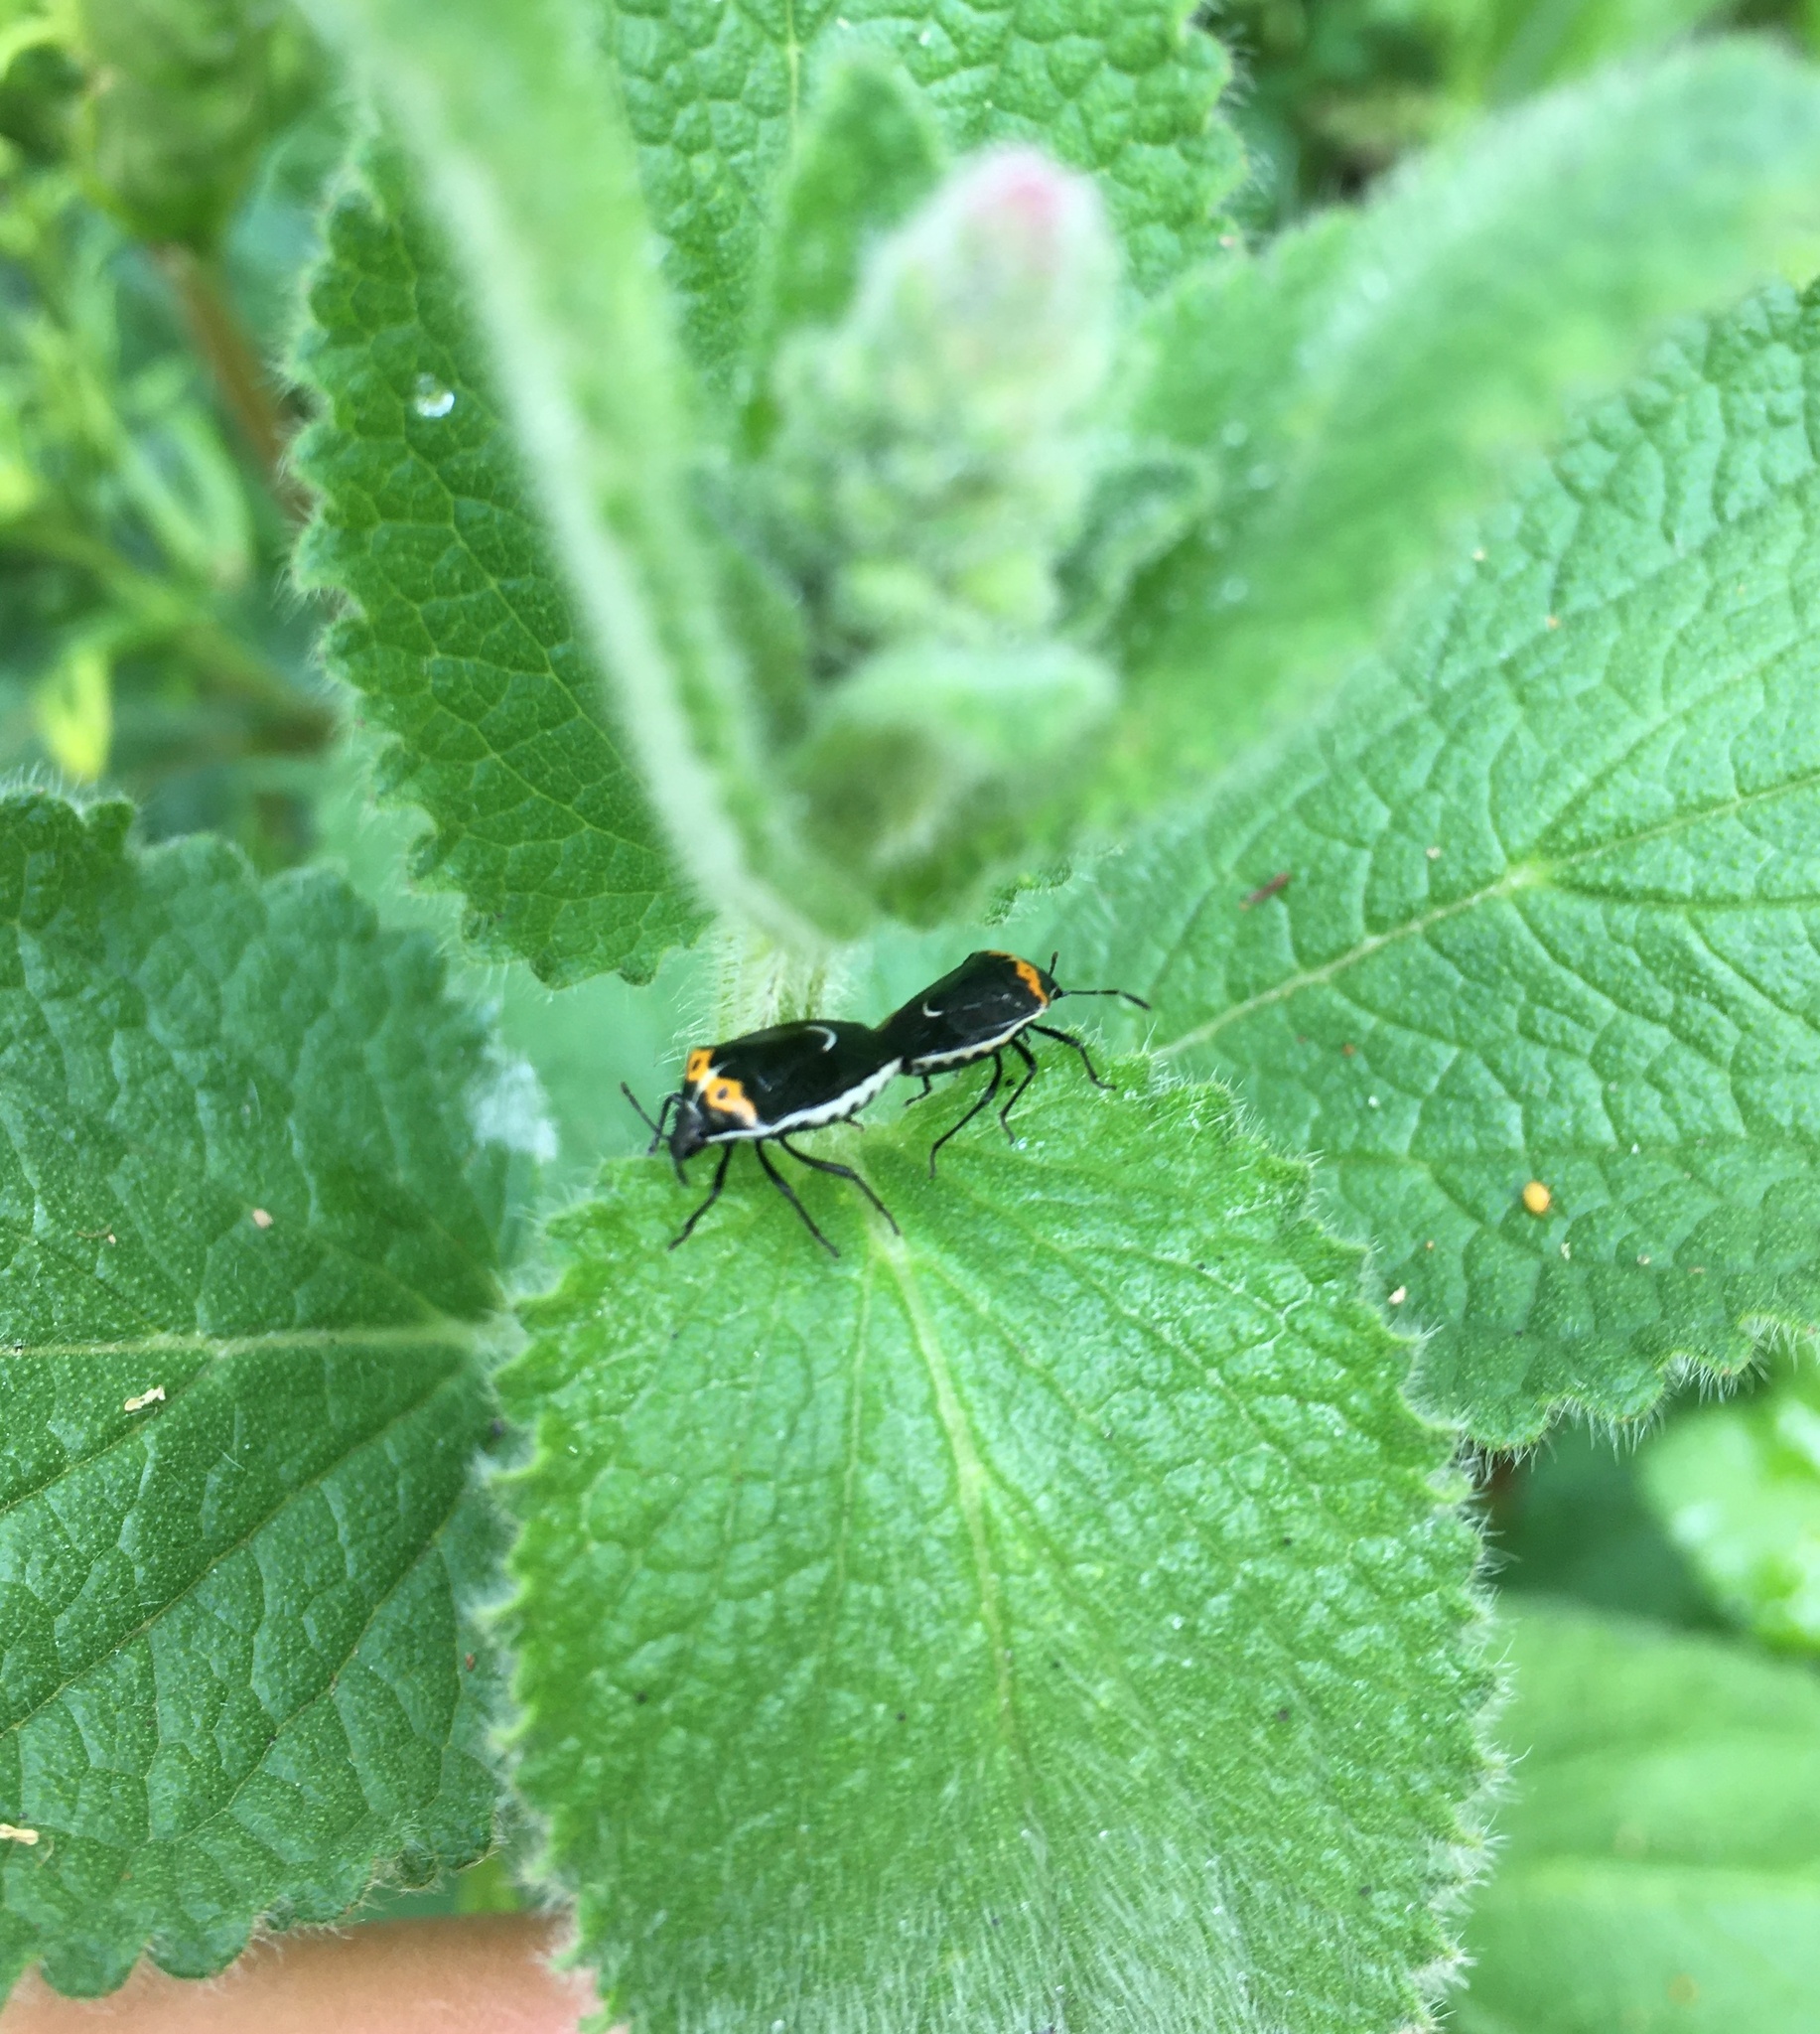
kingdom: Animalia
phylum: Arthropoda
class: Insecta
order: Hemiptera
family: Pentatomidae
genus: Cosmopepla
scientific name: Cosmopepla conspicillaris
